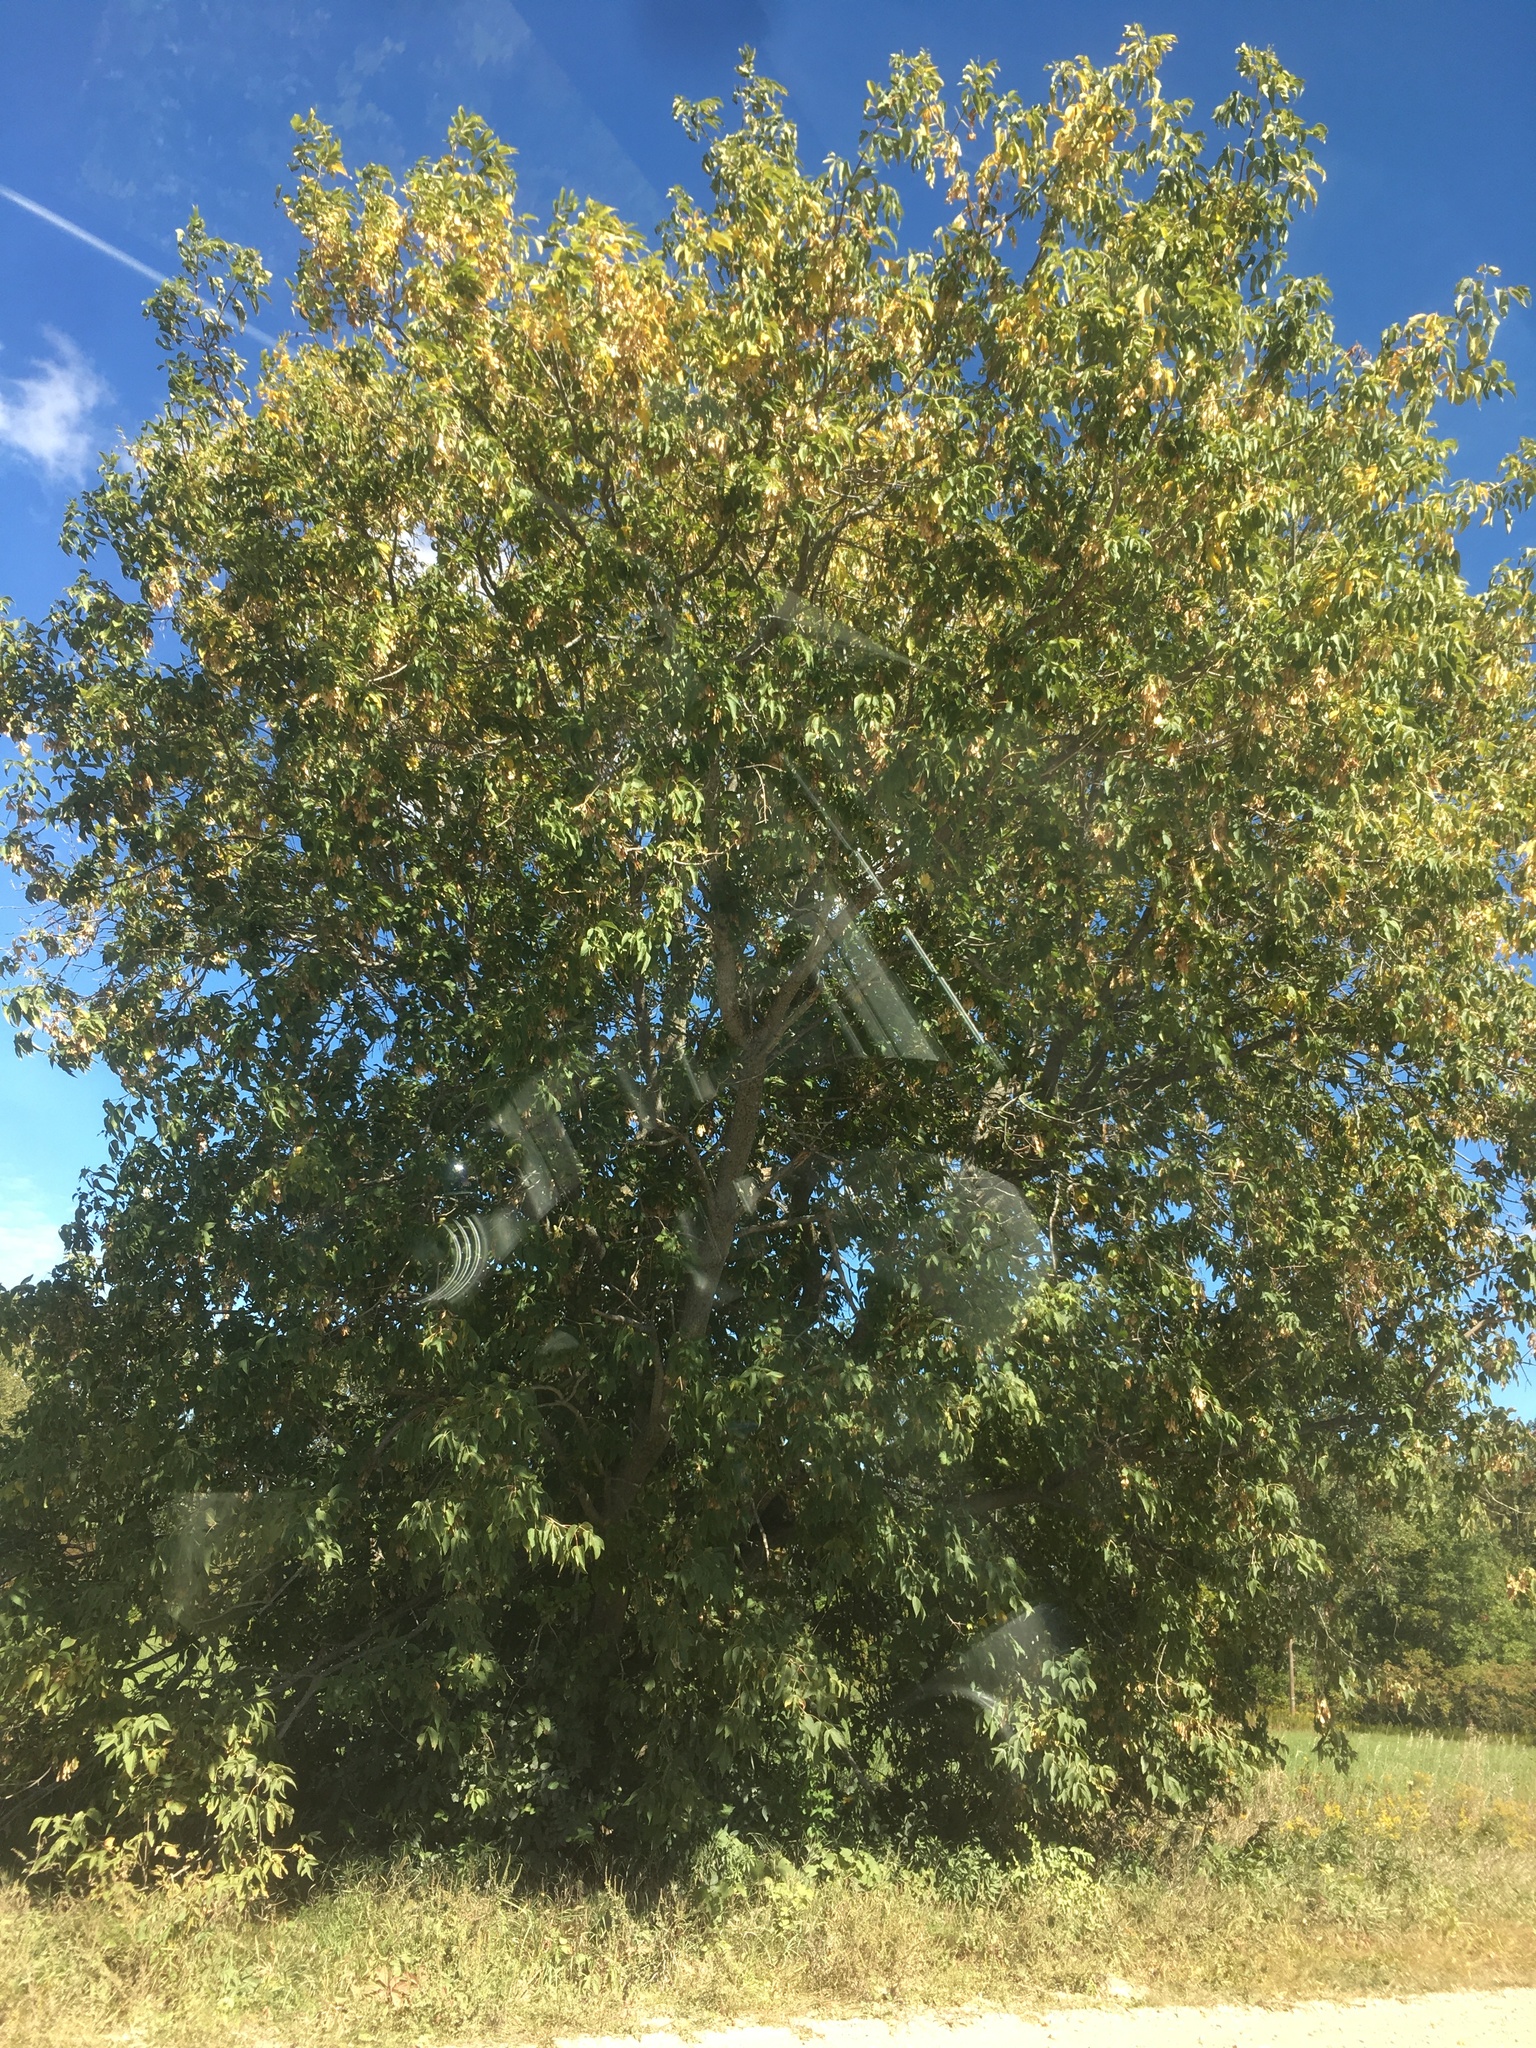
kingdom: Plantae
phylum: Tracheophyta
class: Magnoliopsida
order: Sapindales
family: Sapindaceae
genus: Acer
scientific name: Acer negundo
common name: Ashleaf maple
